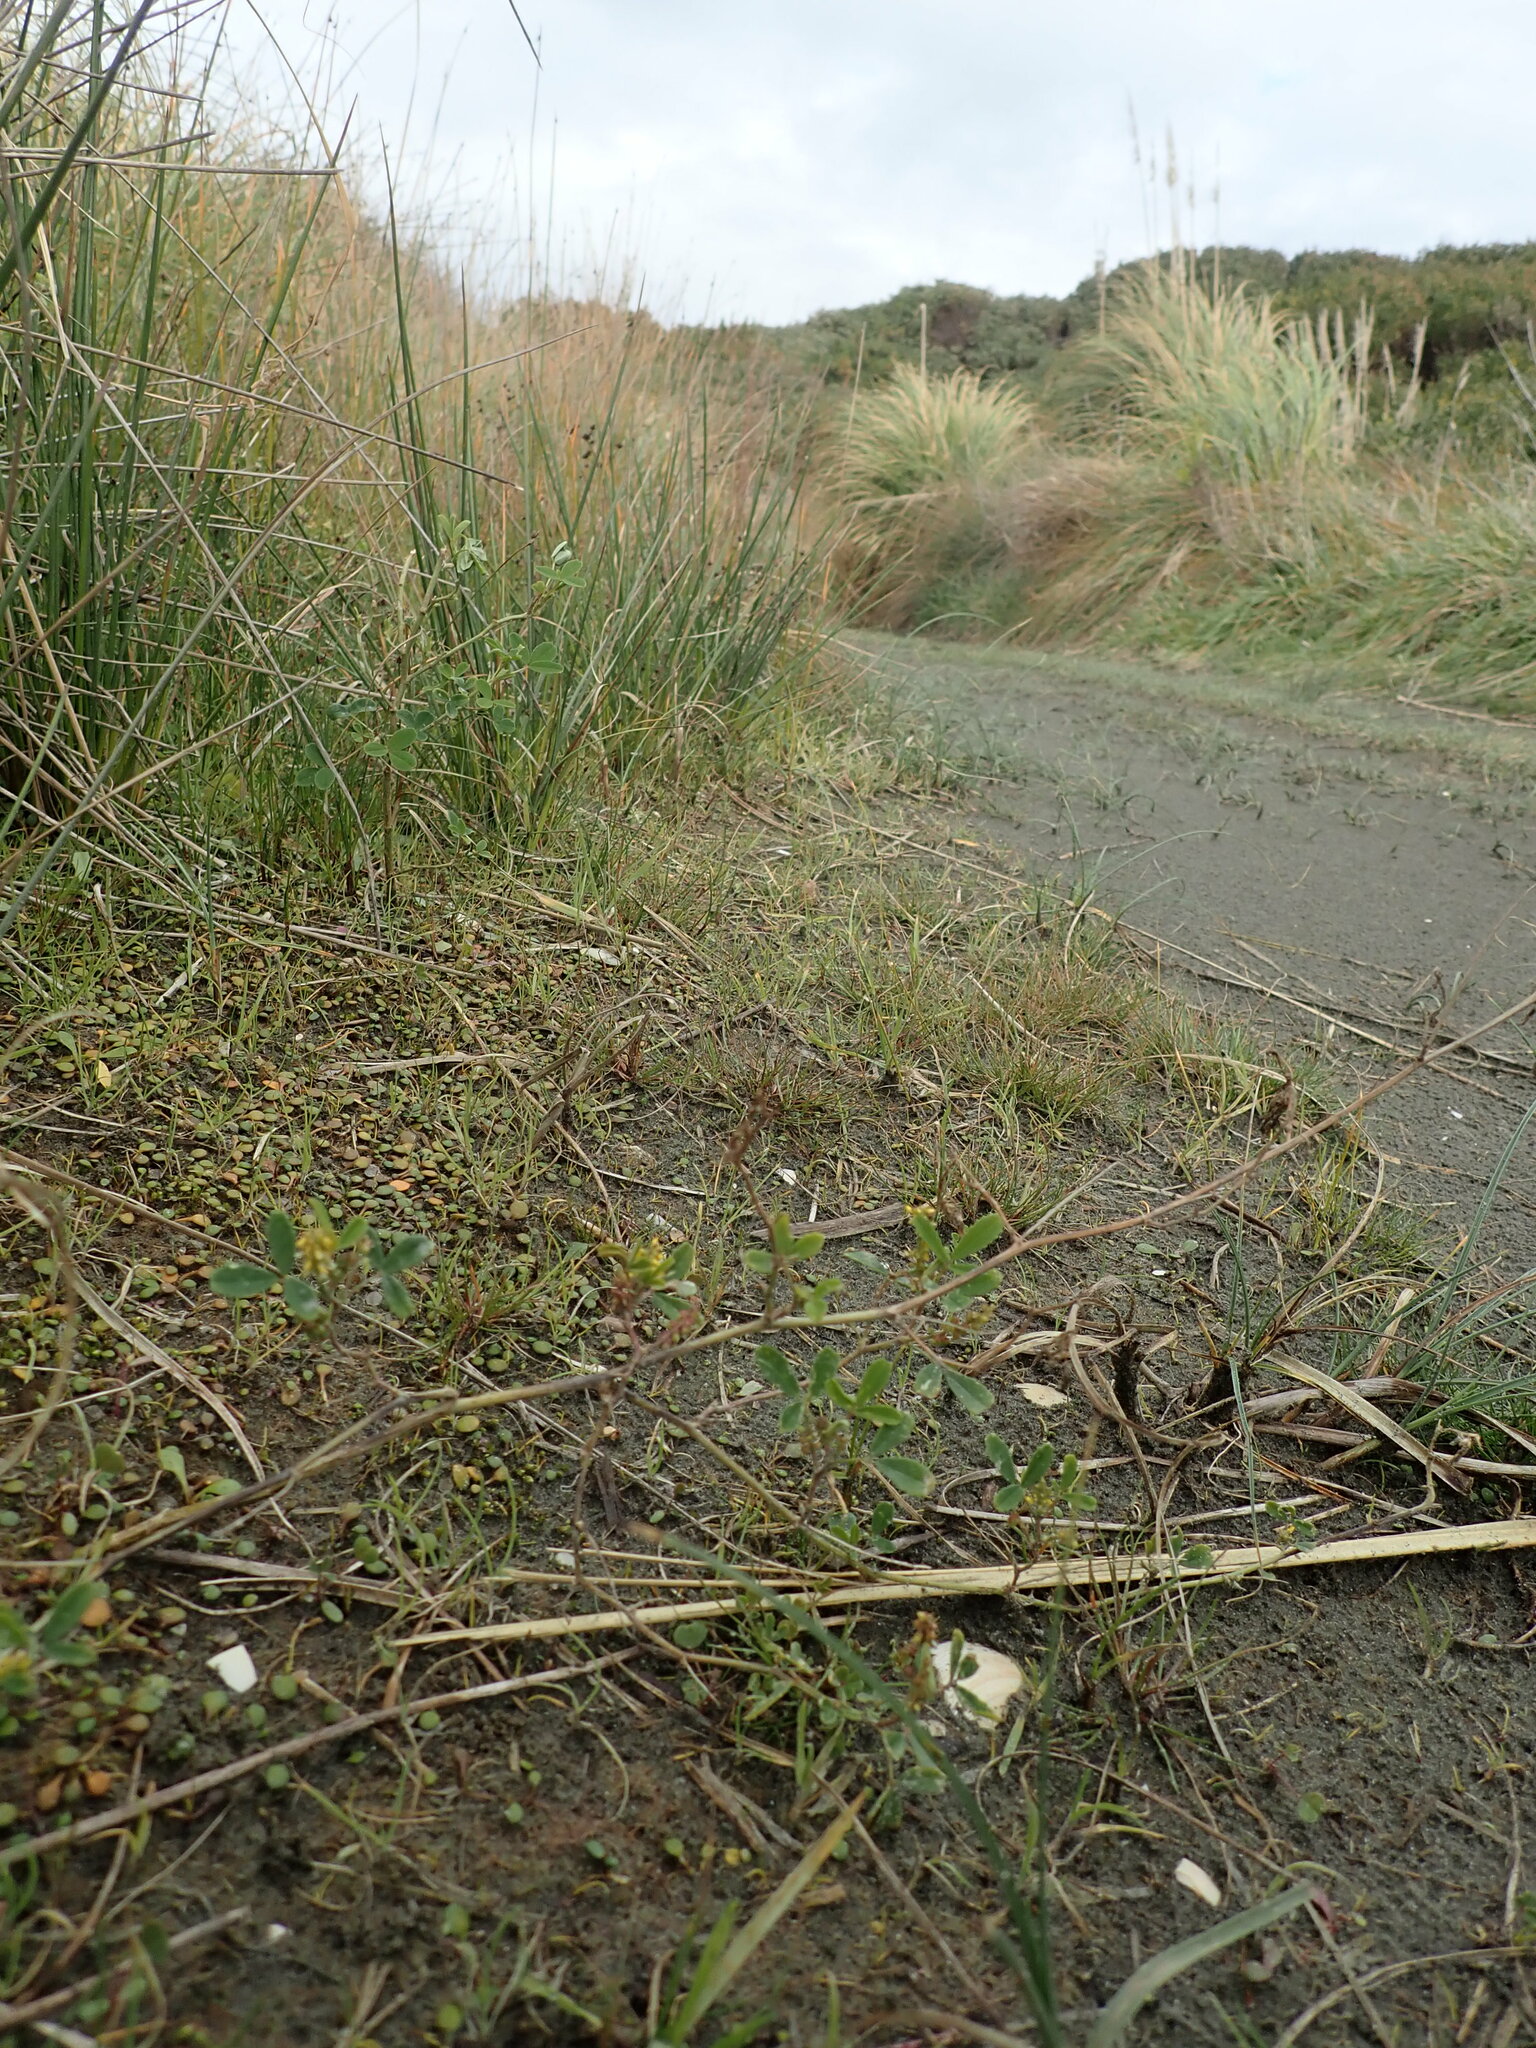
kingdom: Plantae
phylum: Tracheophyta
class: Magnoliopsida
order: Fabales
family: Fabaceae
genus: Melilotus
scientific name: Melilotus indicus
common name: Small melilot
